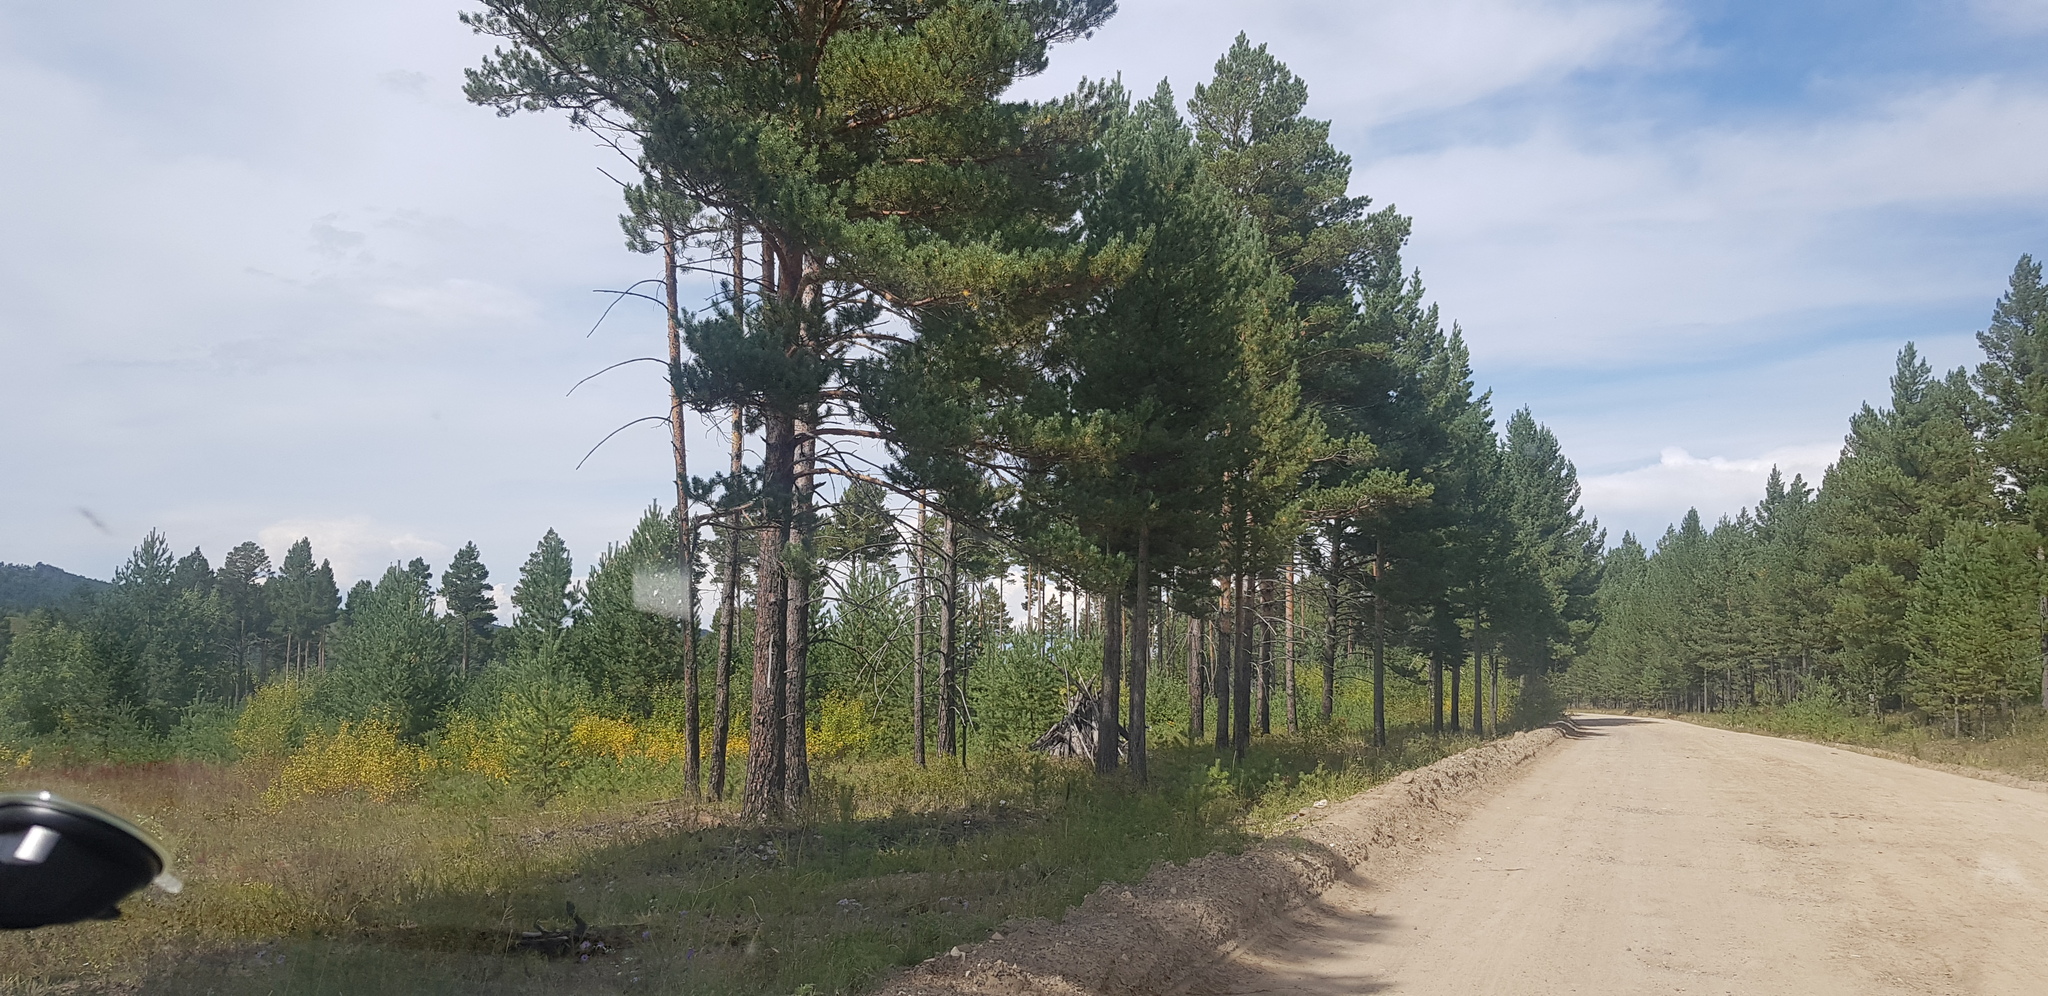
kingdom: Plantae
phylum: Tracheophyta
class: Pinopsida
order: Pinales
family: Pinaceae
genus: Pinus
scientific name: Pinus sylvestris
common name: Scots pine
